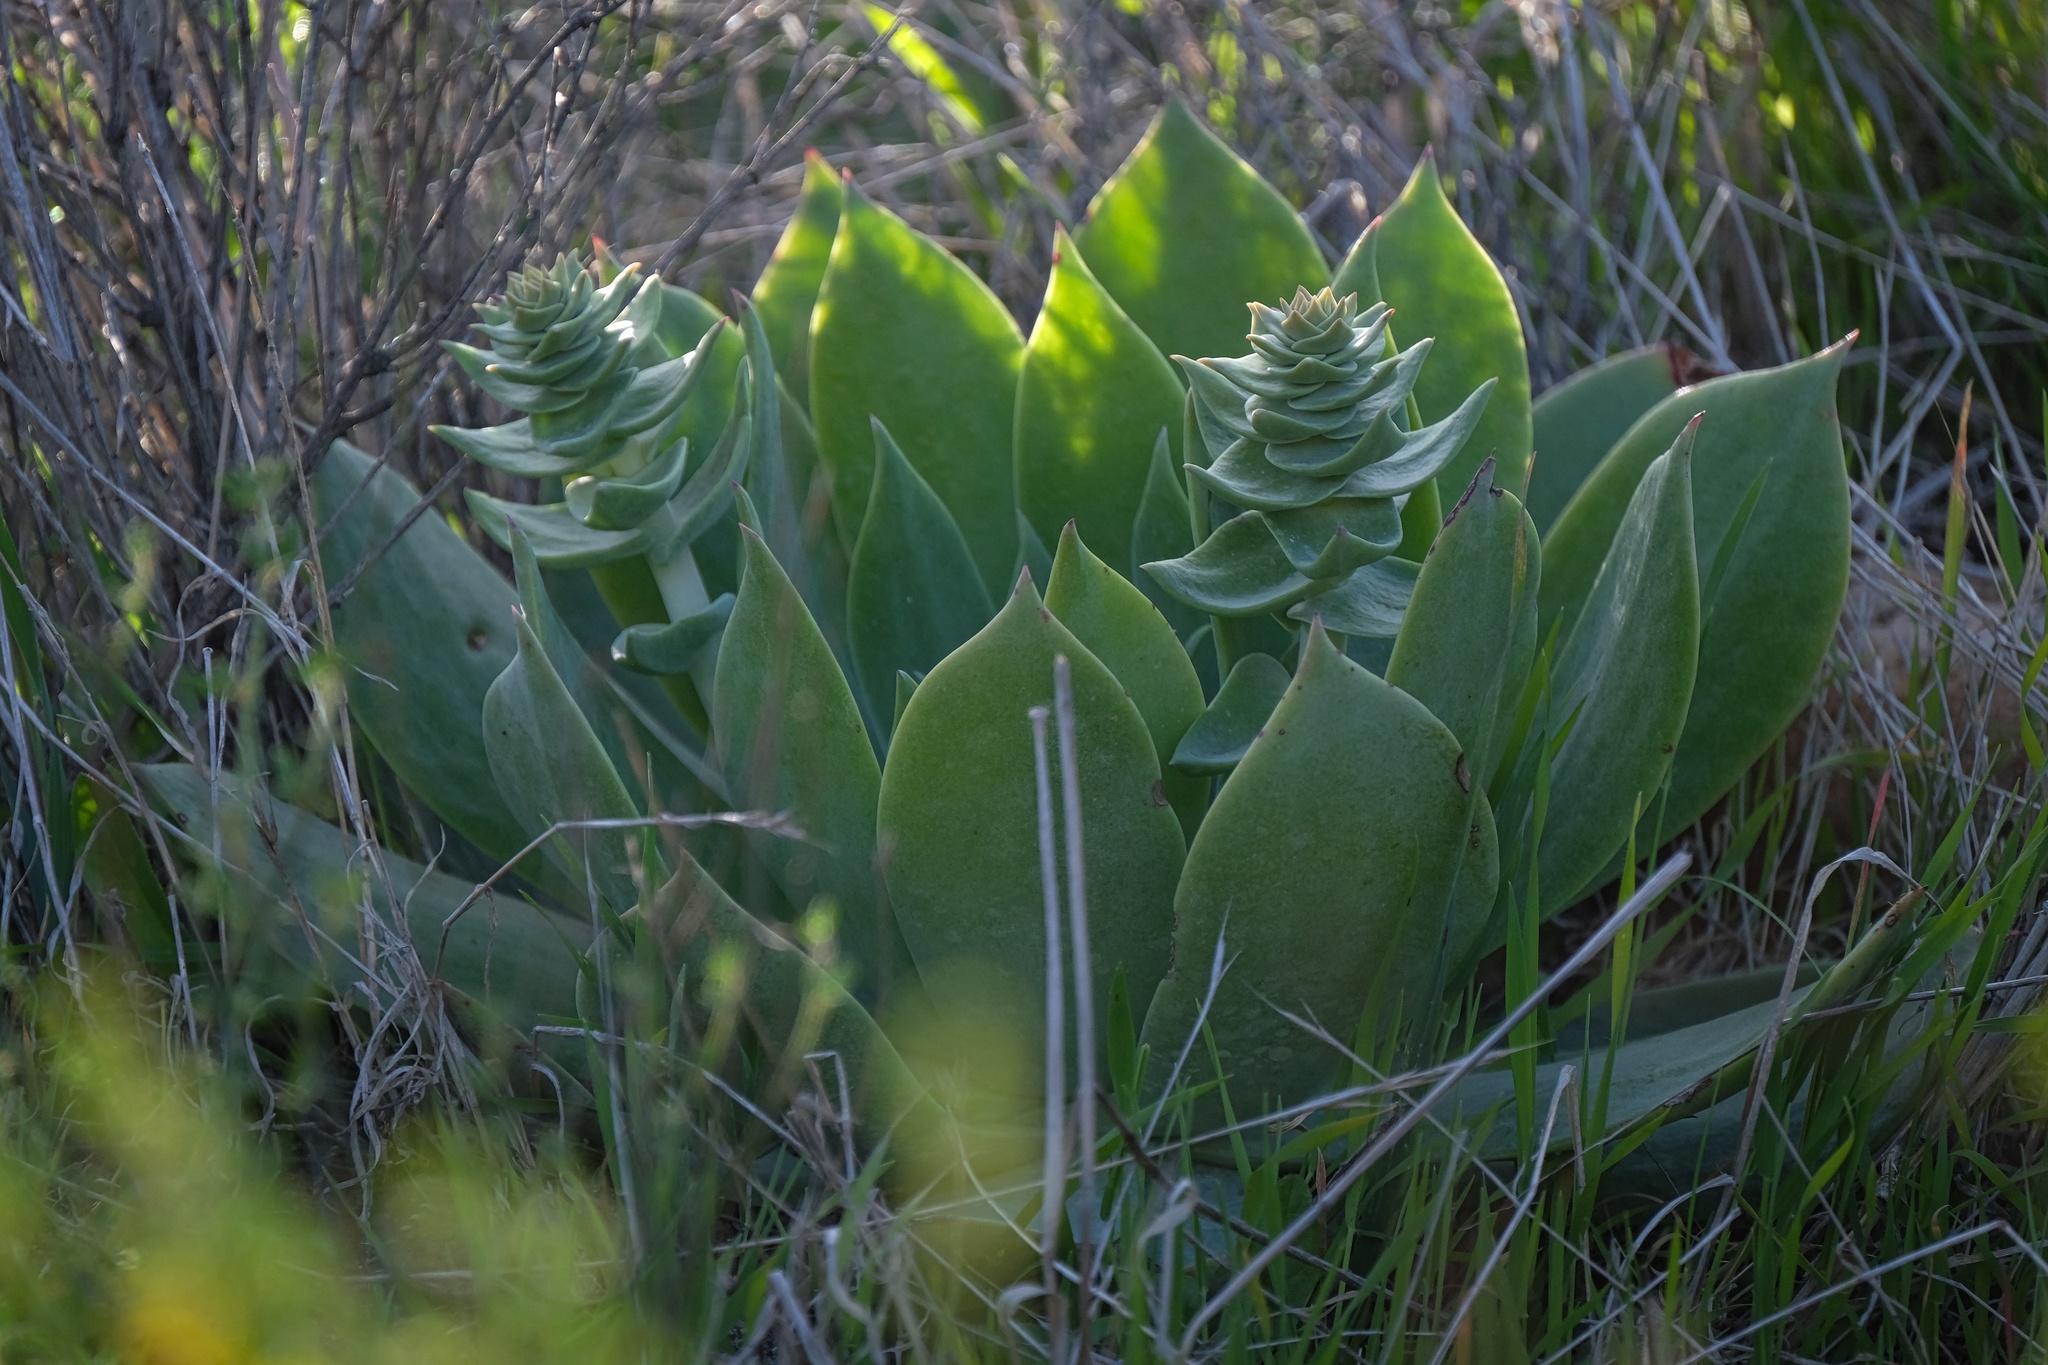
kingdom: Plantae
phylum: Tracheophyta
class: Magnoliopsida
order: Saxifragales
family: Crassulaceae
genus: Dudleya
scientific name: Dudleya pulverulenta
